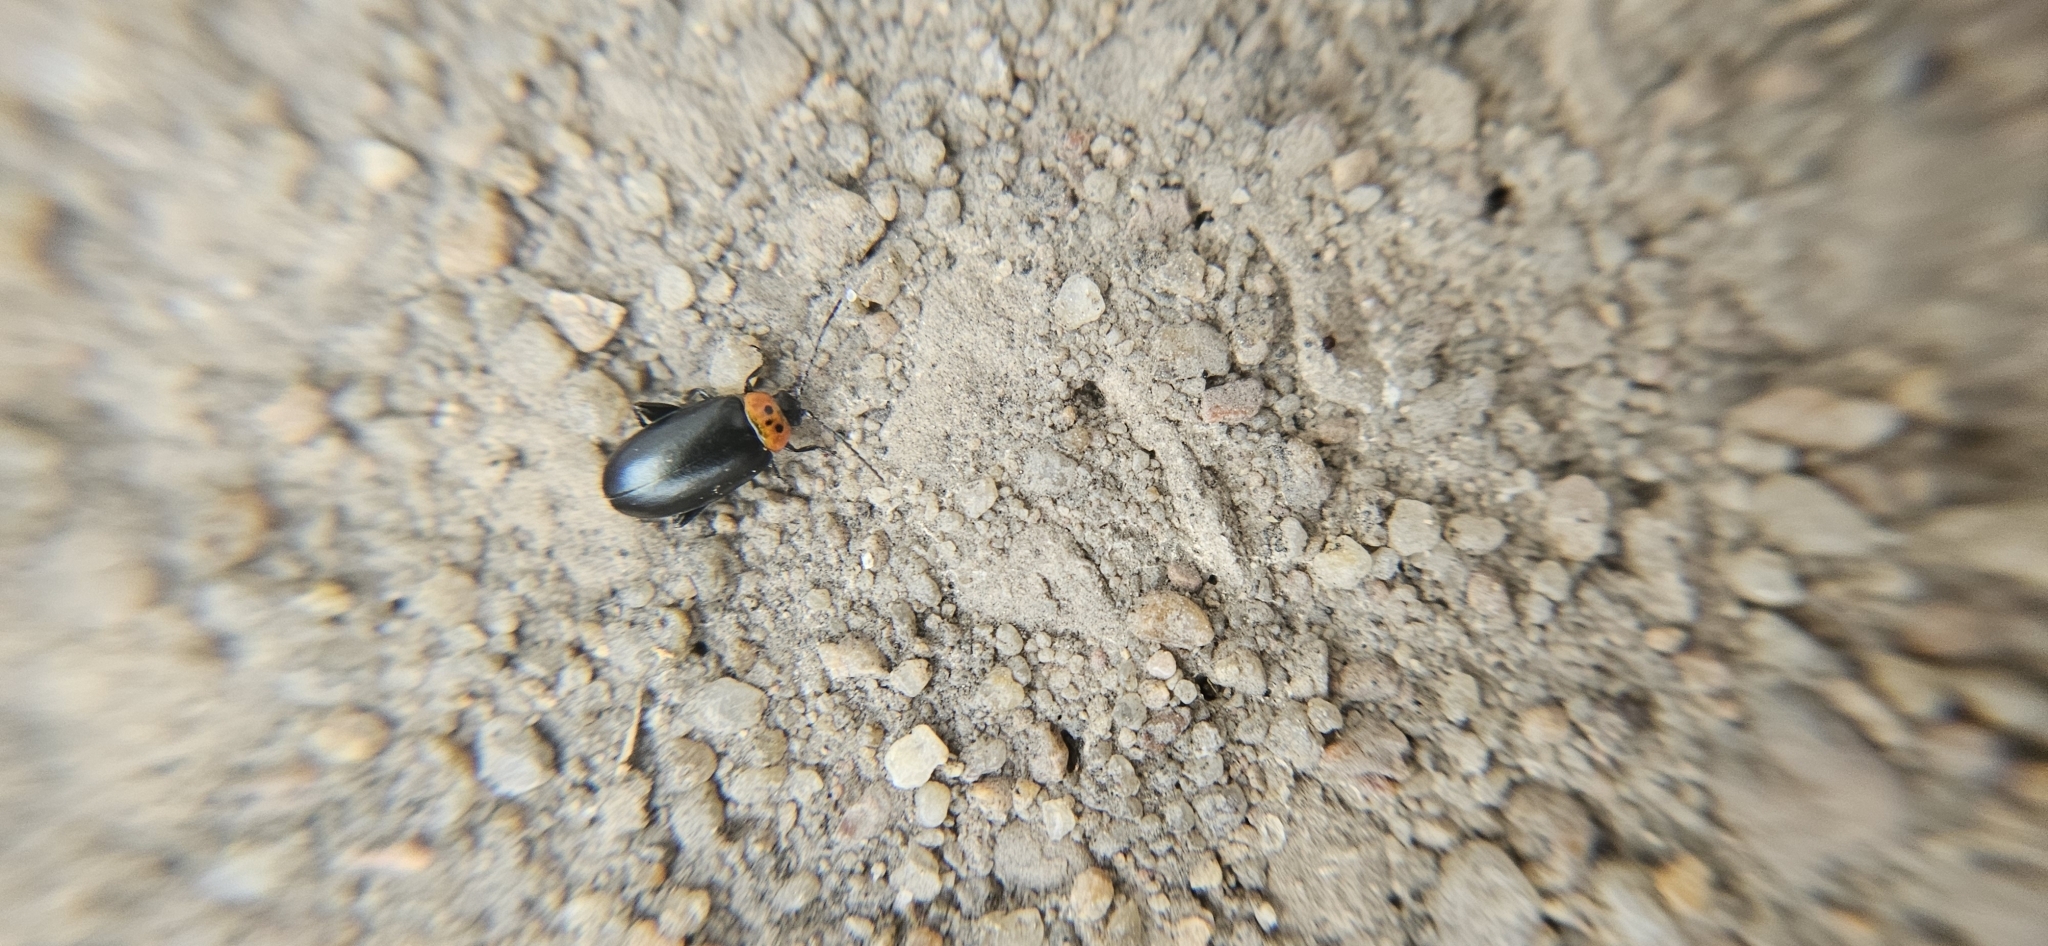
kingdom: Animalia
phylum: Arthropoda
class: Insecta
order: Coleoptera
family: Chrysomelidae
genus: Disonycha
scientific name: Disonycha triangularis
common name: Three-spotted flea beetle
